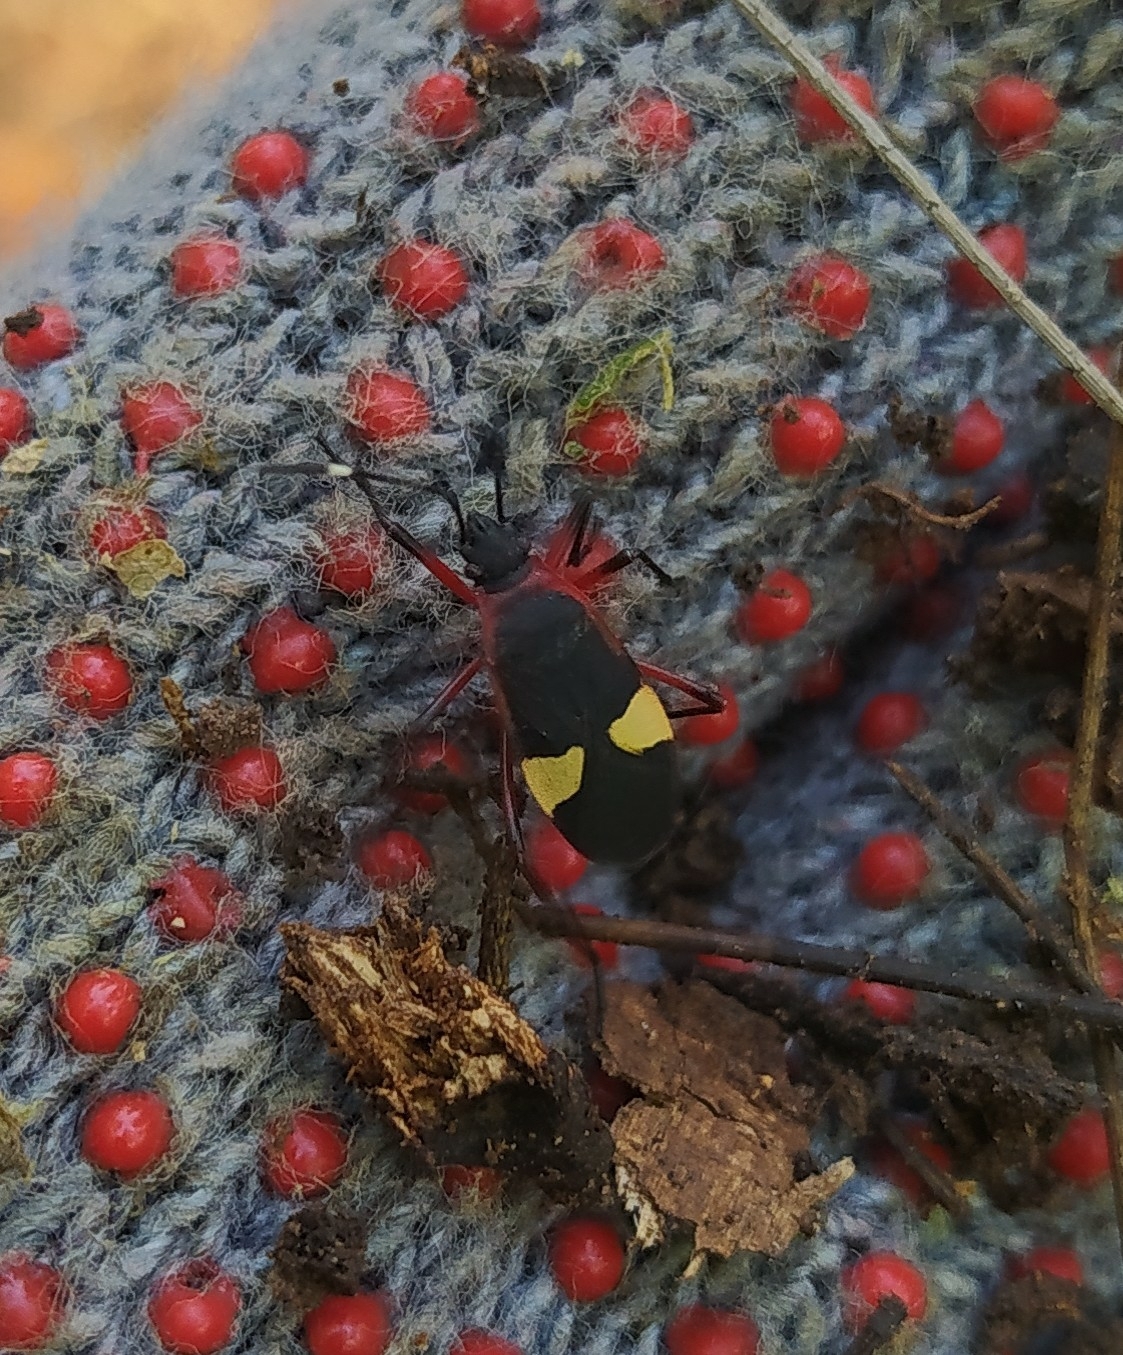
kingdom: Animalia
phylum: Arthropoda
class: Insecta
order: Hemiptera
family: Pyrrhocoridae
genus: Dysdercus
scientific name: Dysdercus albofasciatus
